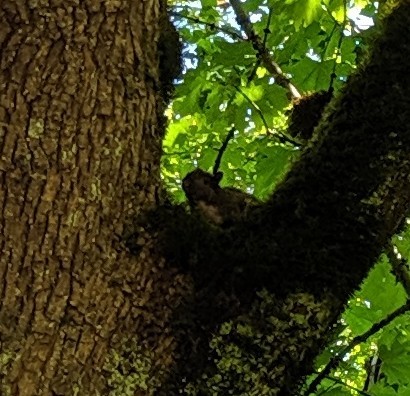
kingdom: Animalia
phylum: Chordata
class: Mammalia
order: Rodentia
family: Sciuridae
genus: Sciurus
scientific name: Sciurus carolinensis
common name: Eastern gray squirrel
